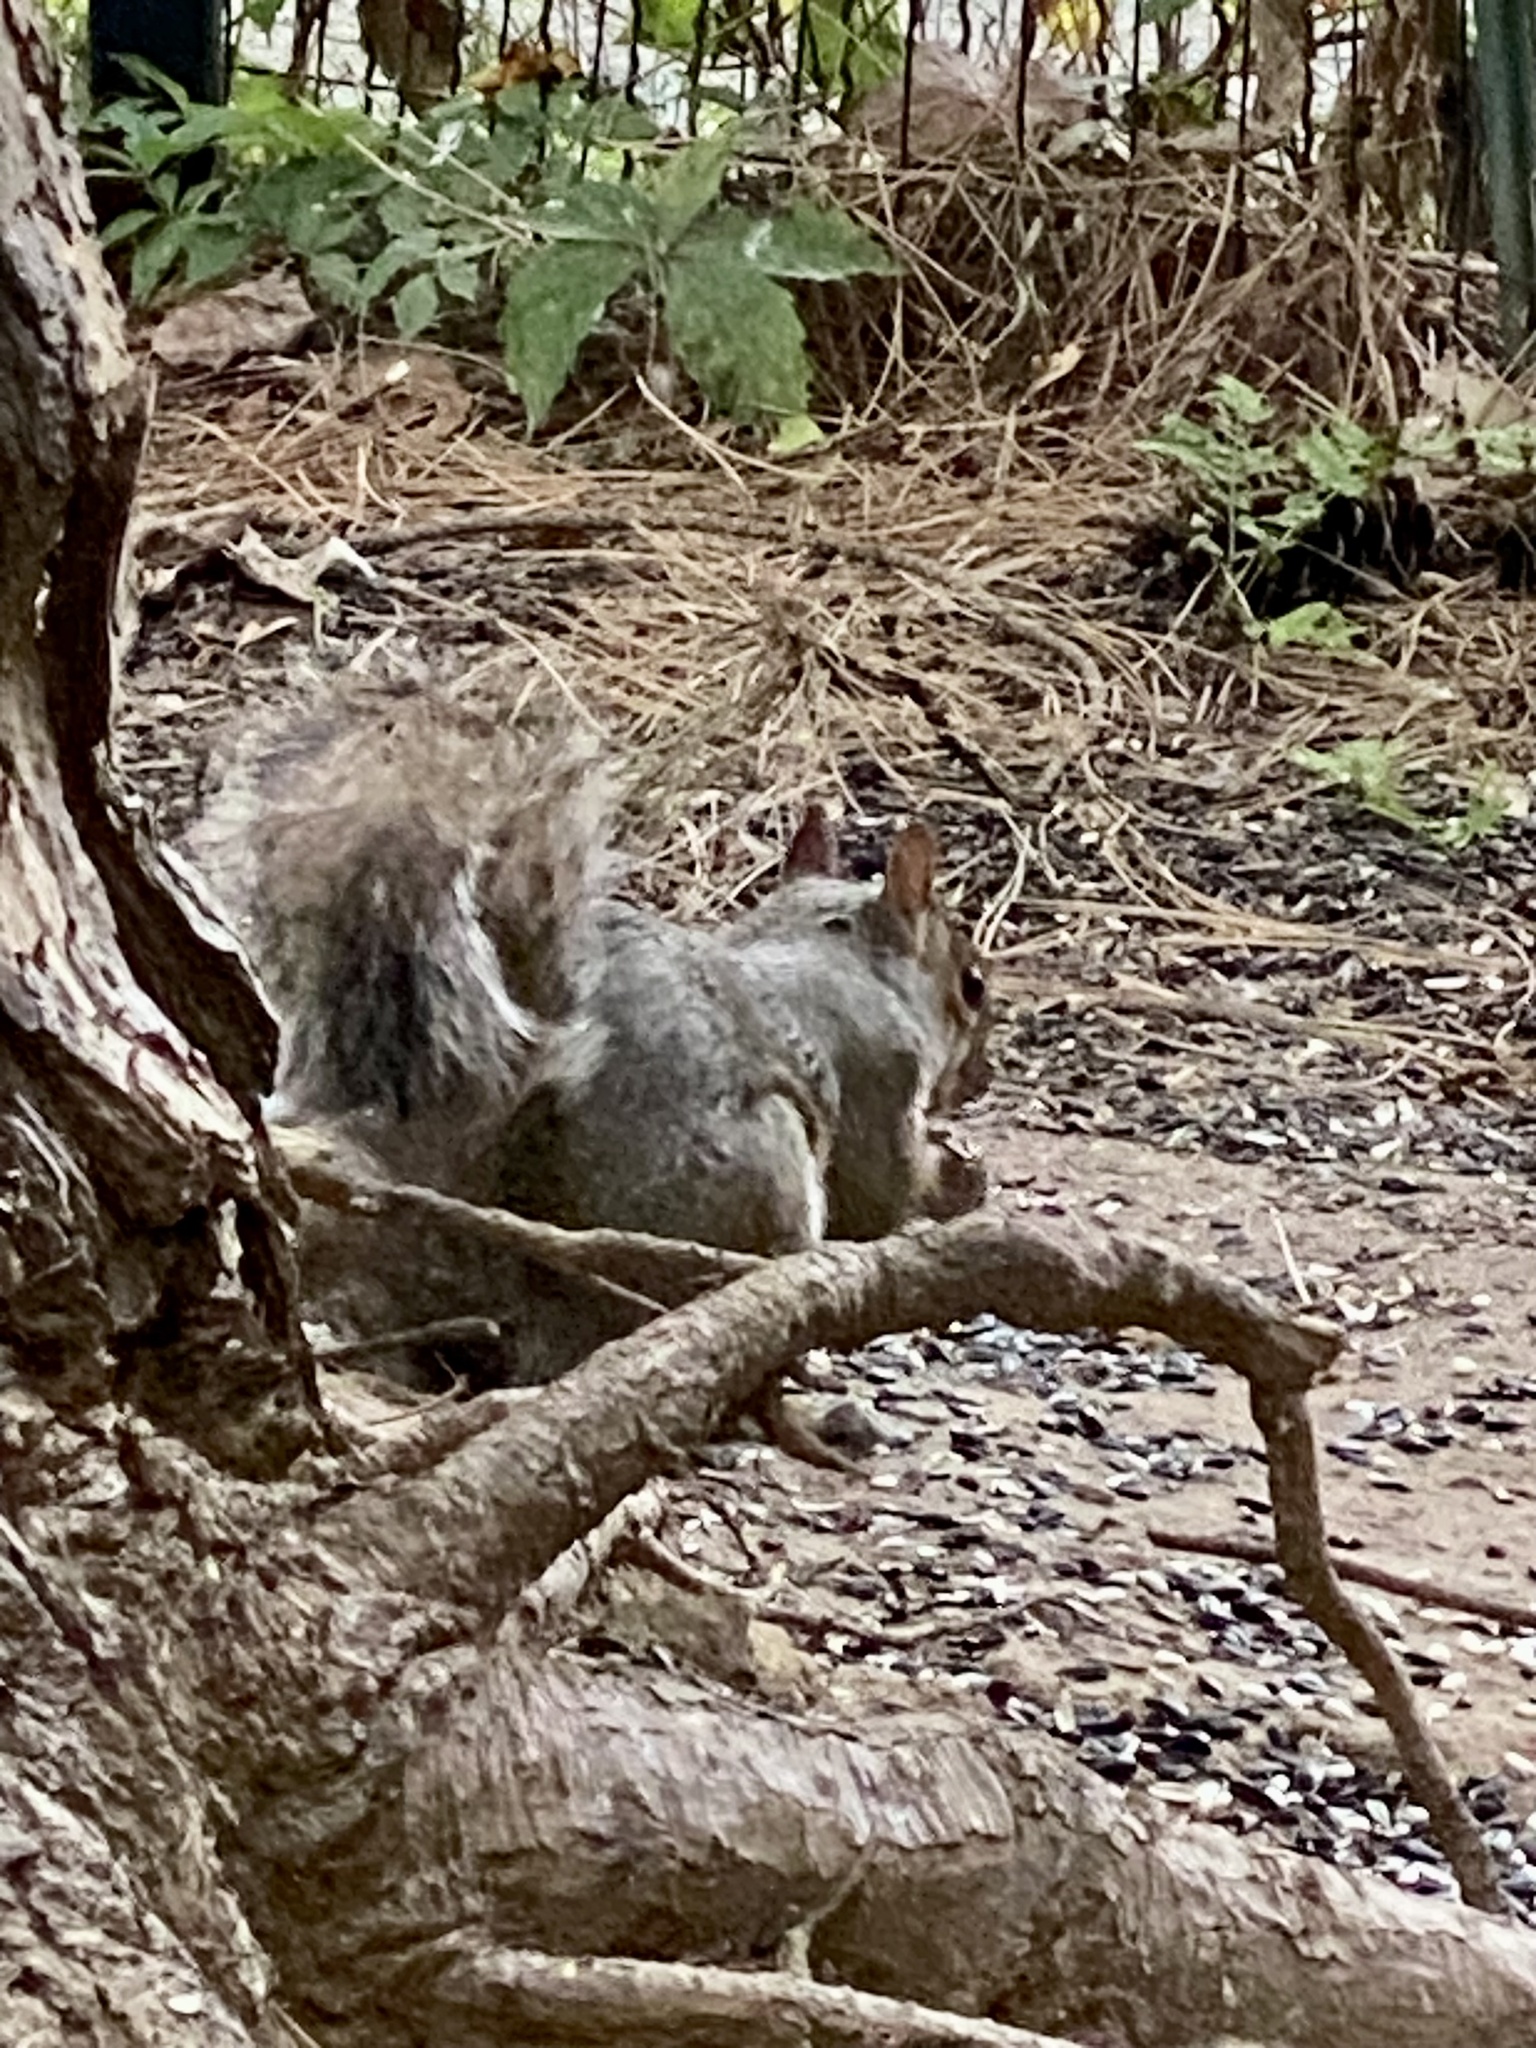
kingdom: Animalia
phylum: Chordata
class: Mammalia
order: Rodentia
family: Sciuridae
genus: Sciurus
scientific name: Sciurus carolinensis
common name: Eastern gray squirrel
